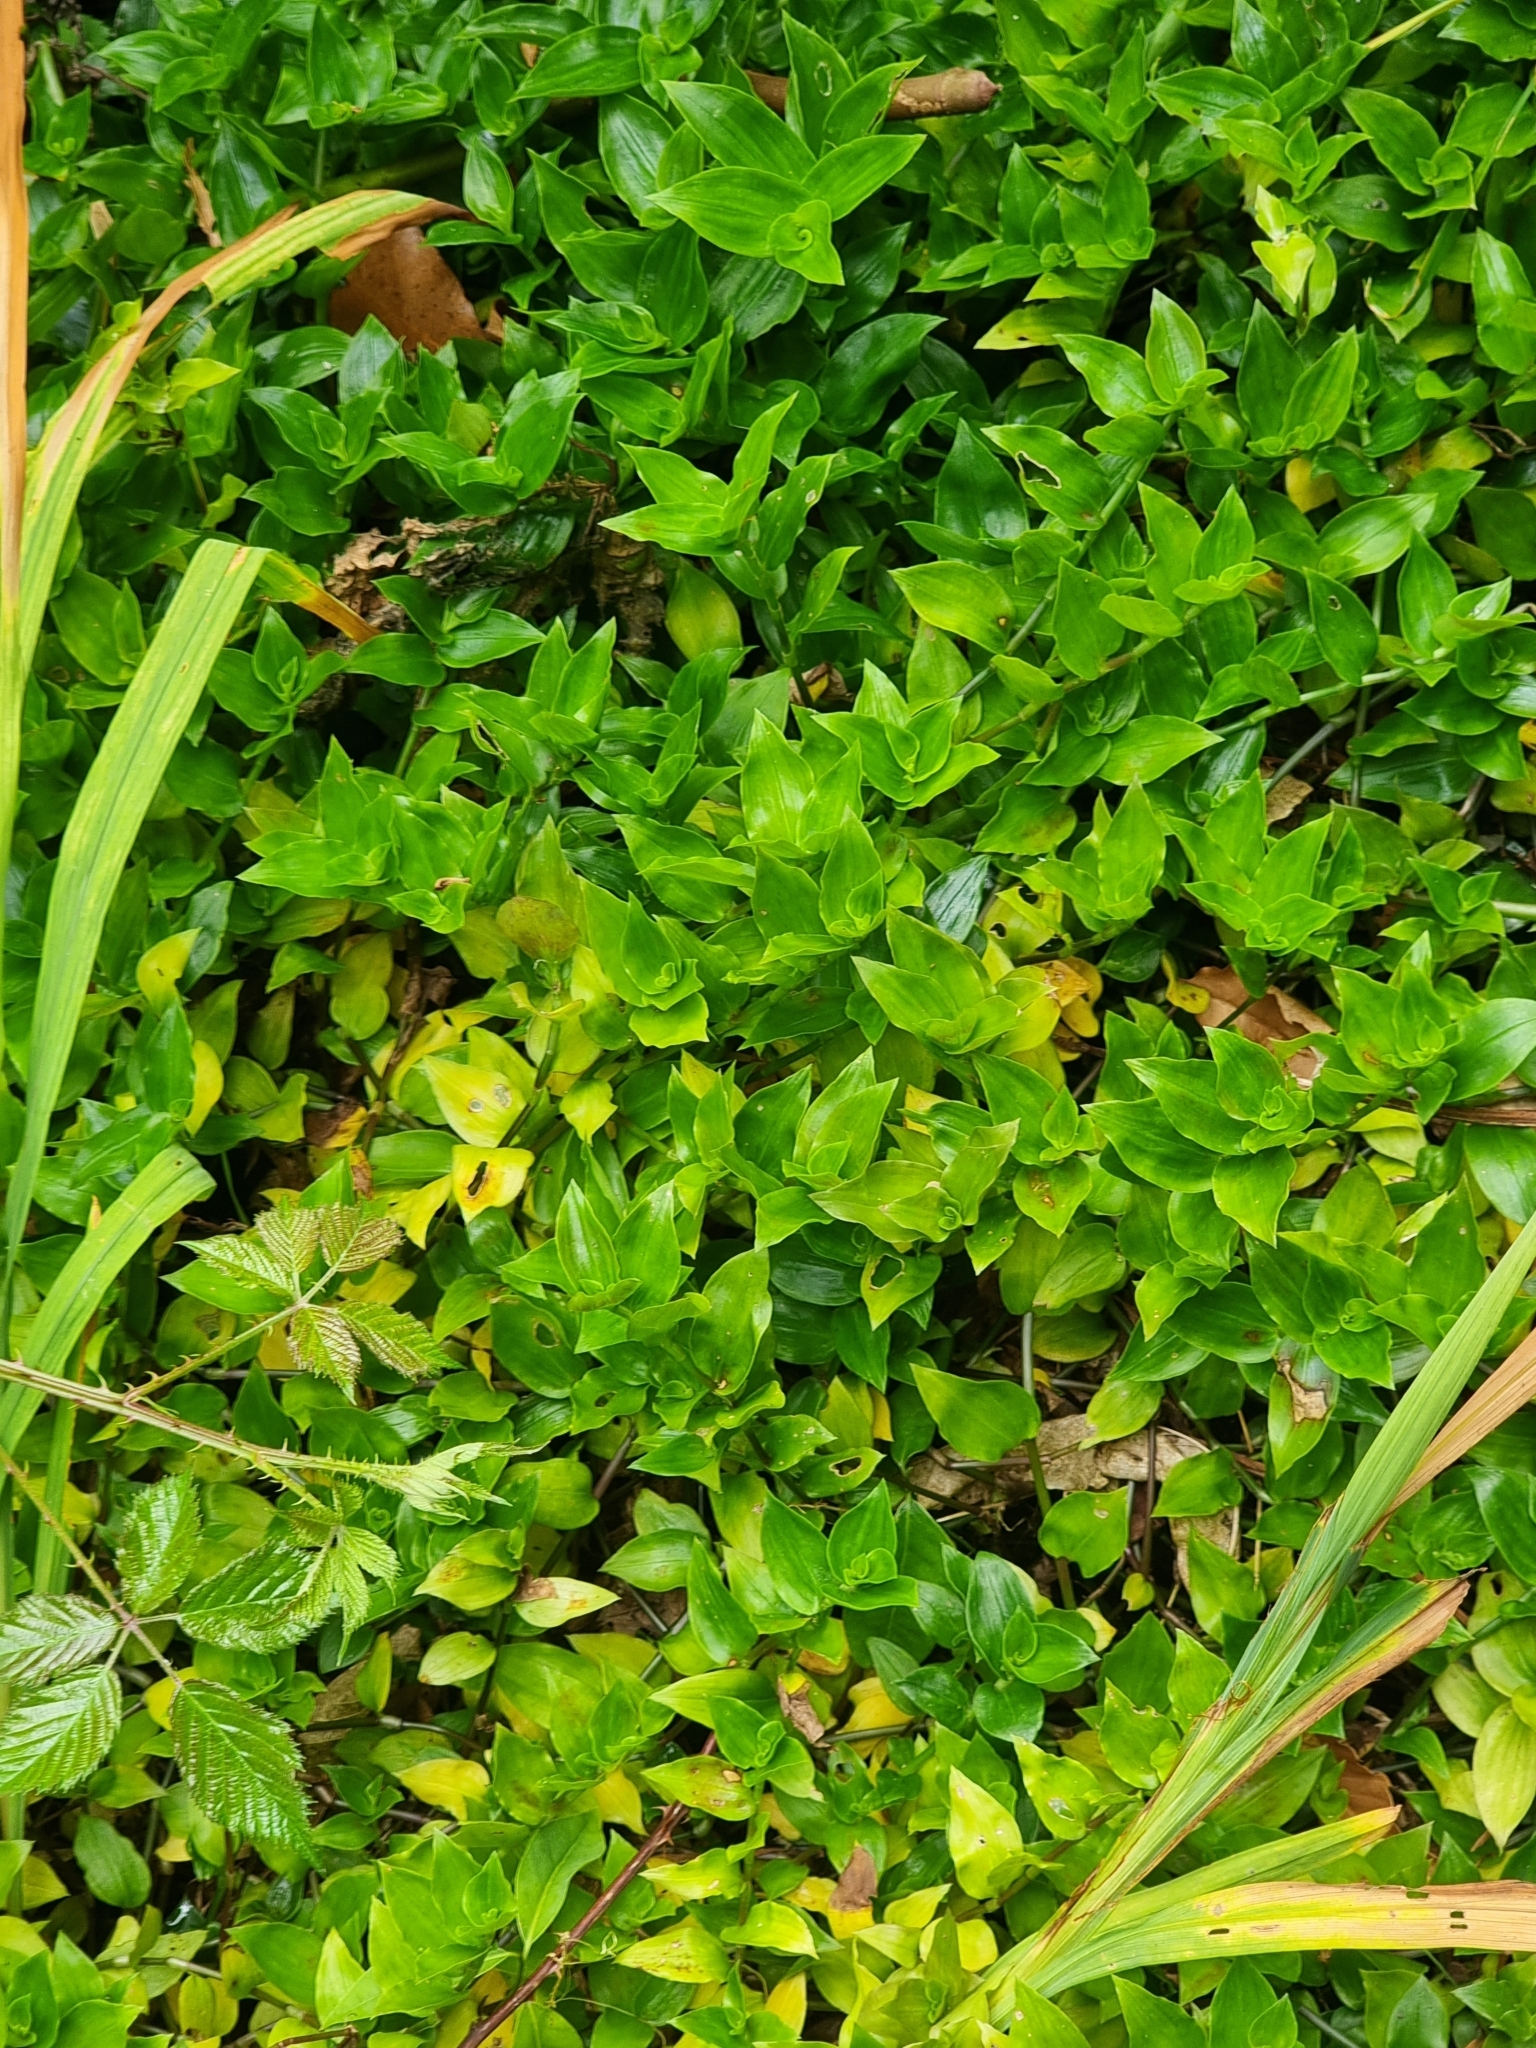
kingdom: Plantae
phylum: Tracheophyta
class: Liliopsida
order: Commelinales
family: Commelinaceae
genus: Tradescantia
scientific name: Tradescantia fluminensis
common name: Wandering-jew
